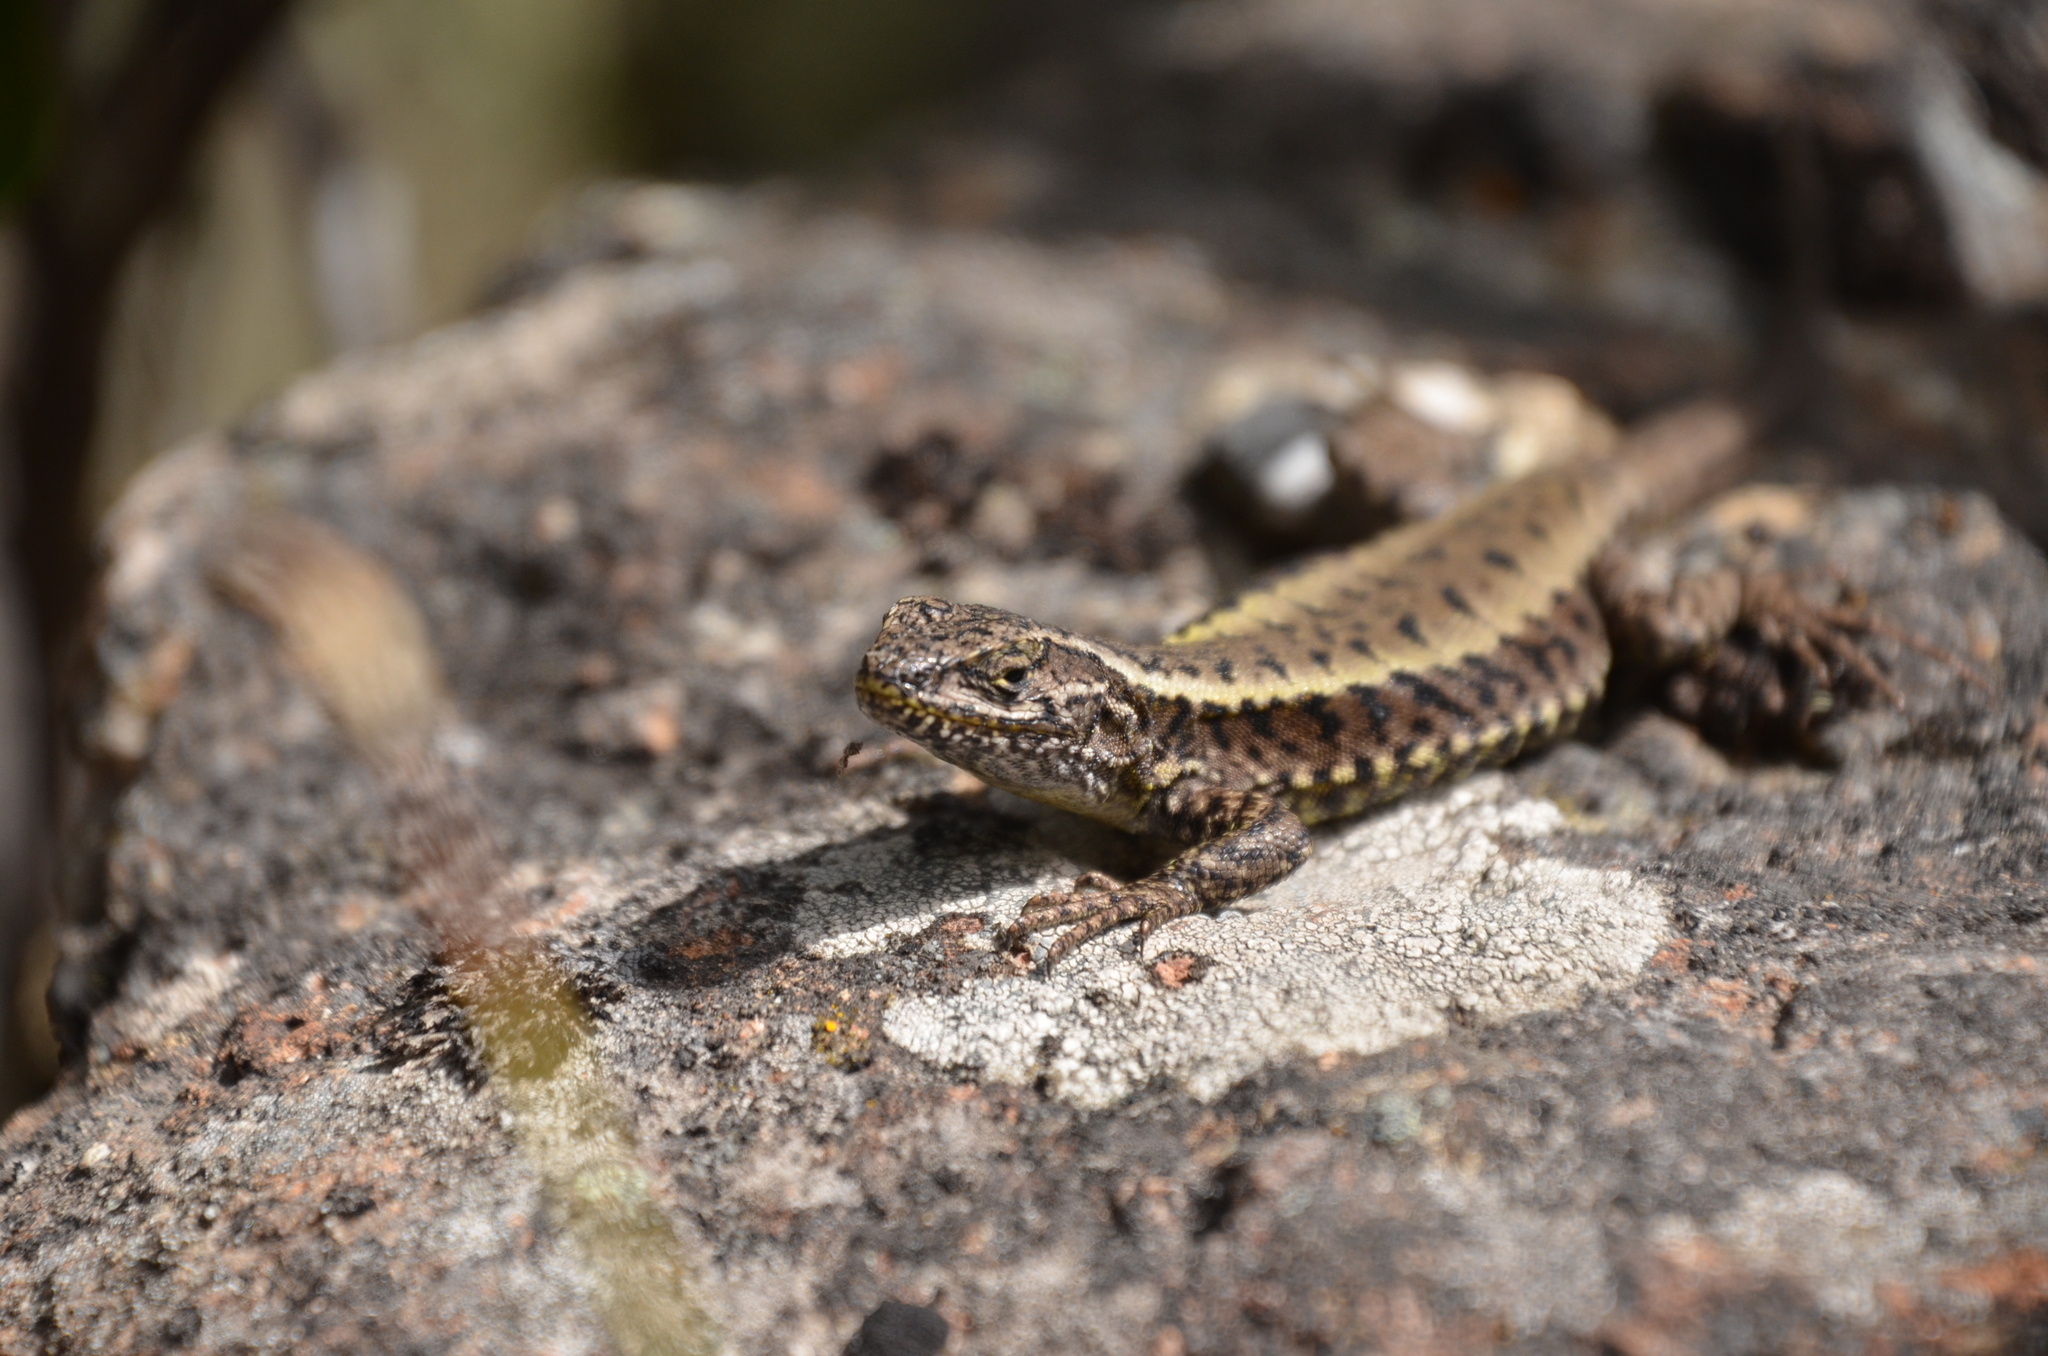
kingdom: Animalia
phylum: Chordata
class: Squamata
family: Liolaemidae
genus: Liolaemus
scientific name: Liolaemus pictus
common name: Painted tree iguana
